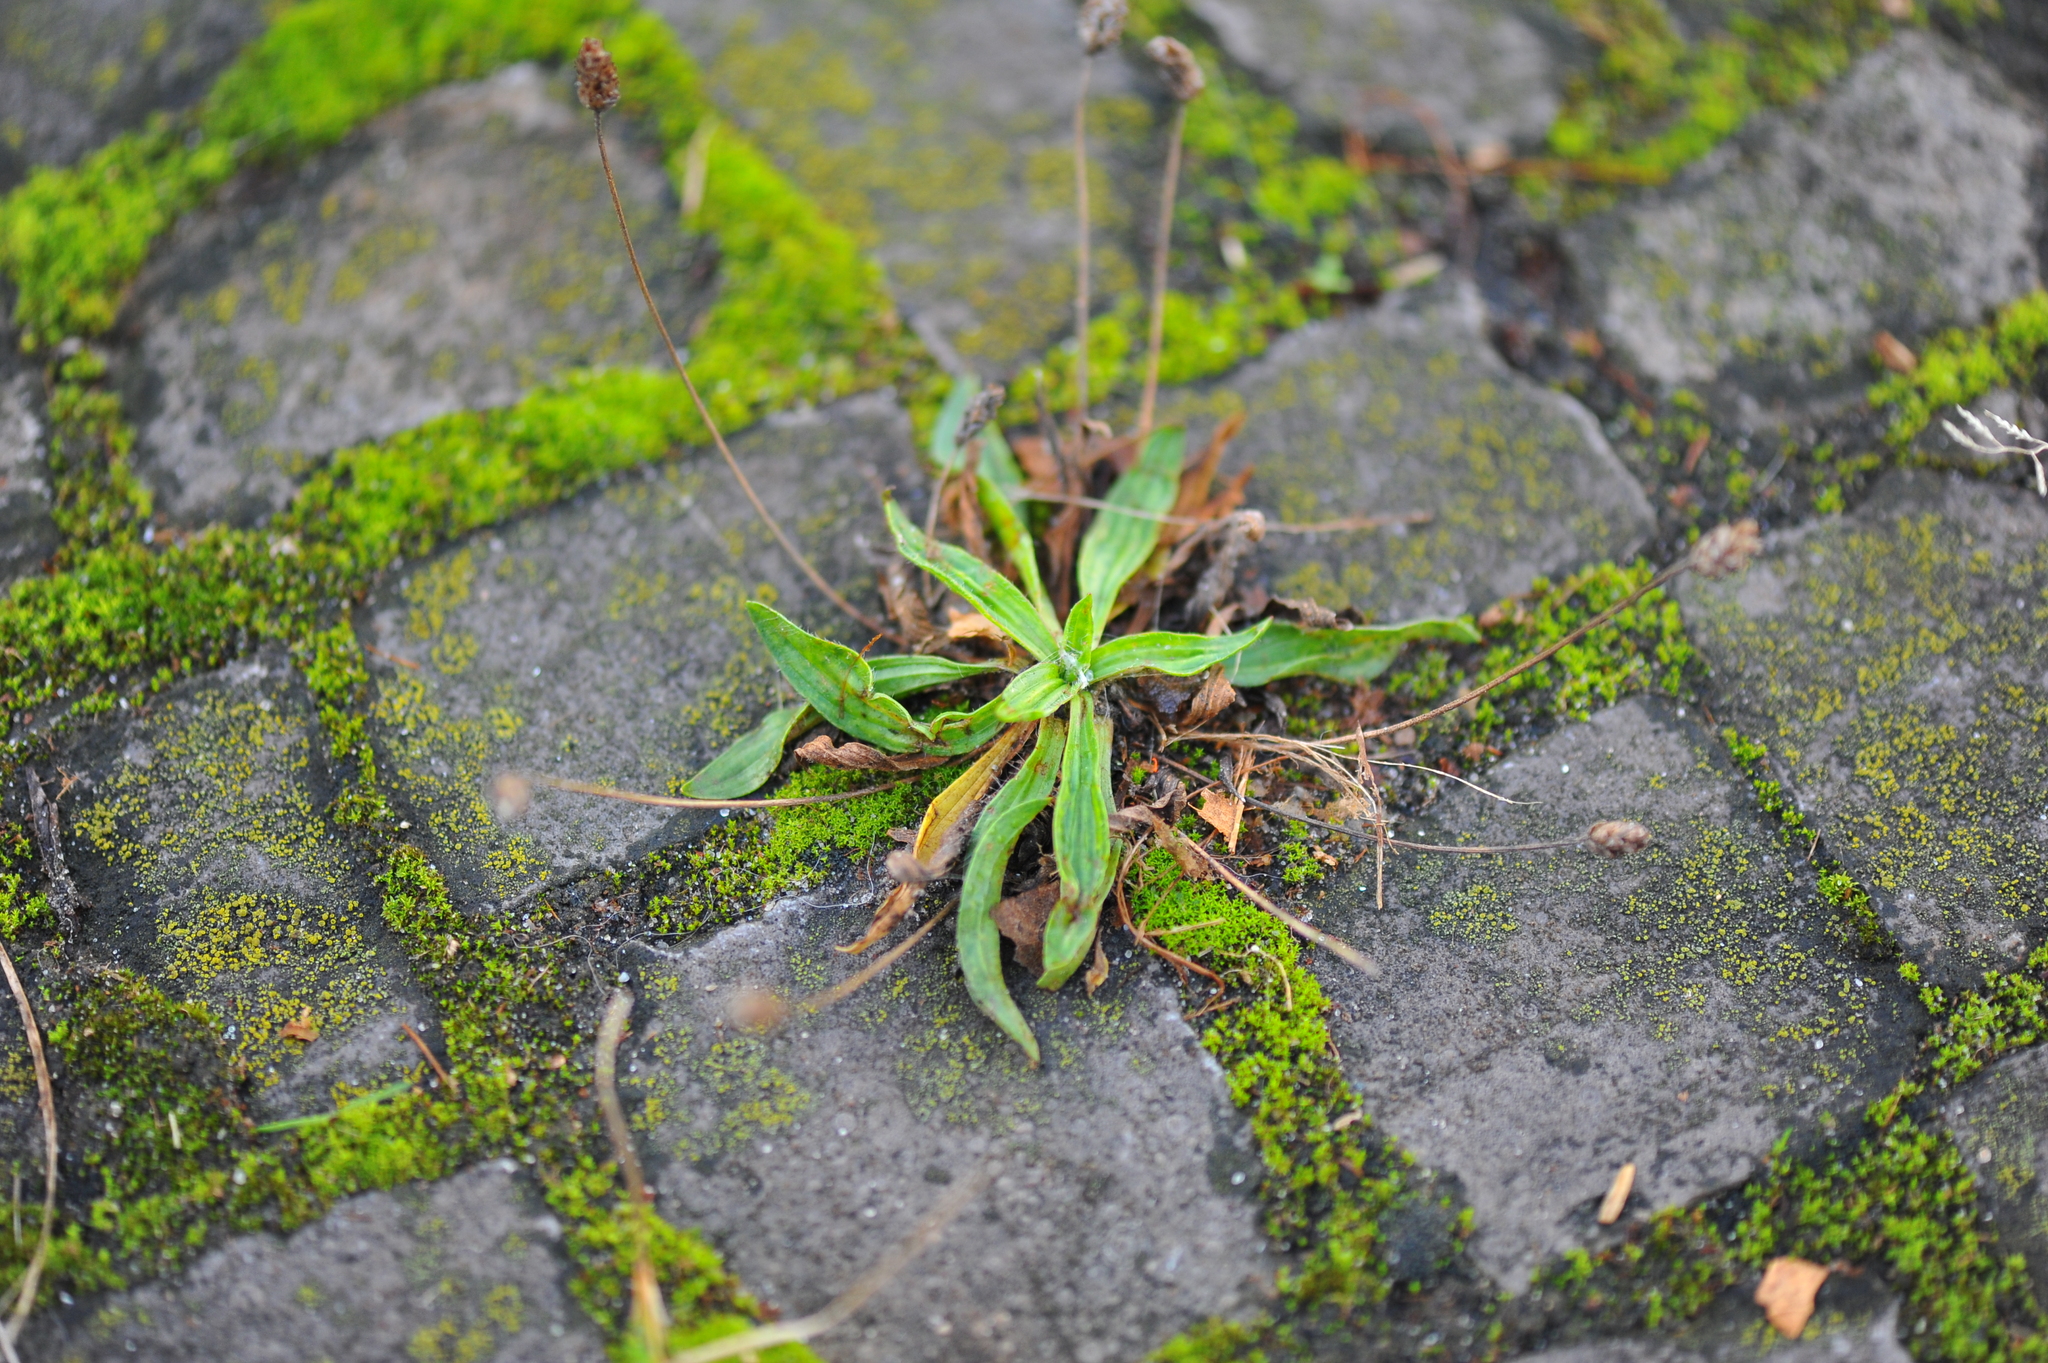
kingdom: Plantae
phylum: Tracheophyta
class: Magnoliopsida
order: Lamiales
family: Plantaginaceae
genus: Plantago
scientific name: Plantago lanceolata
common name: Ribwort plantain
